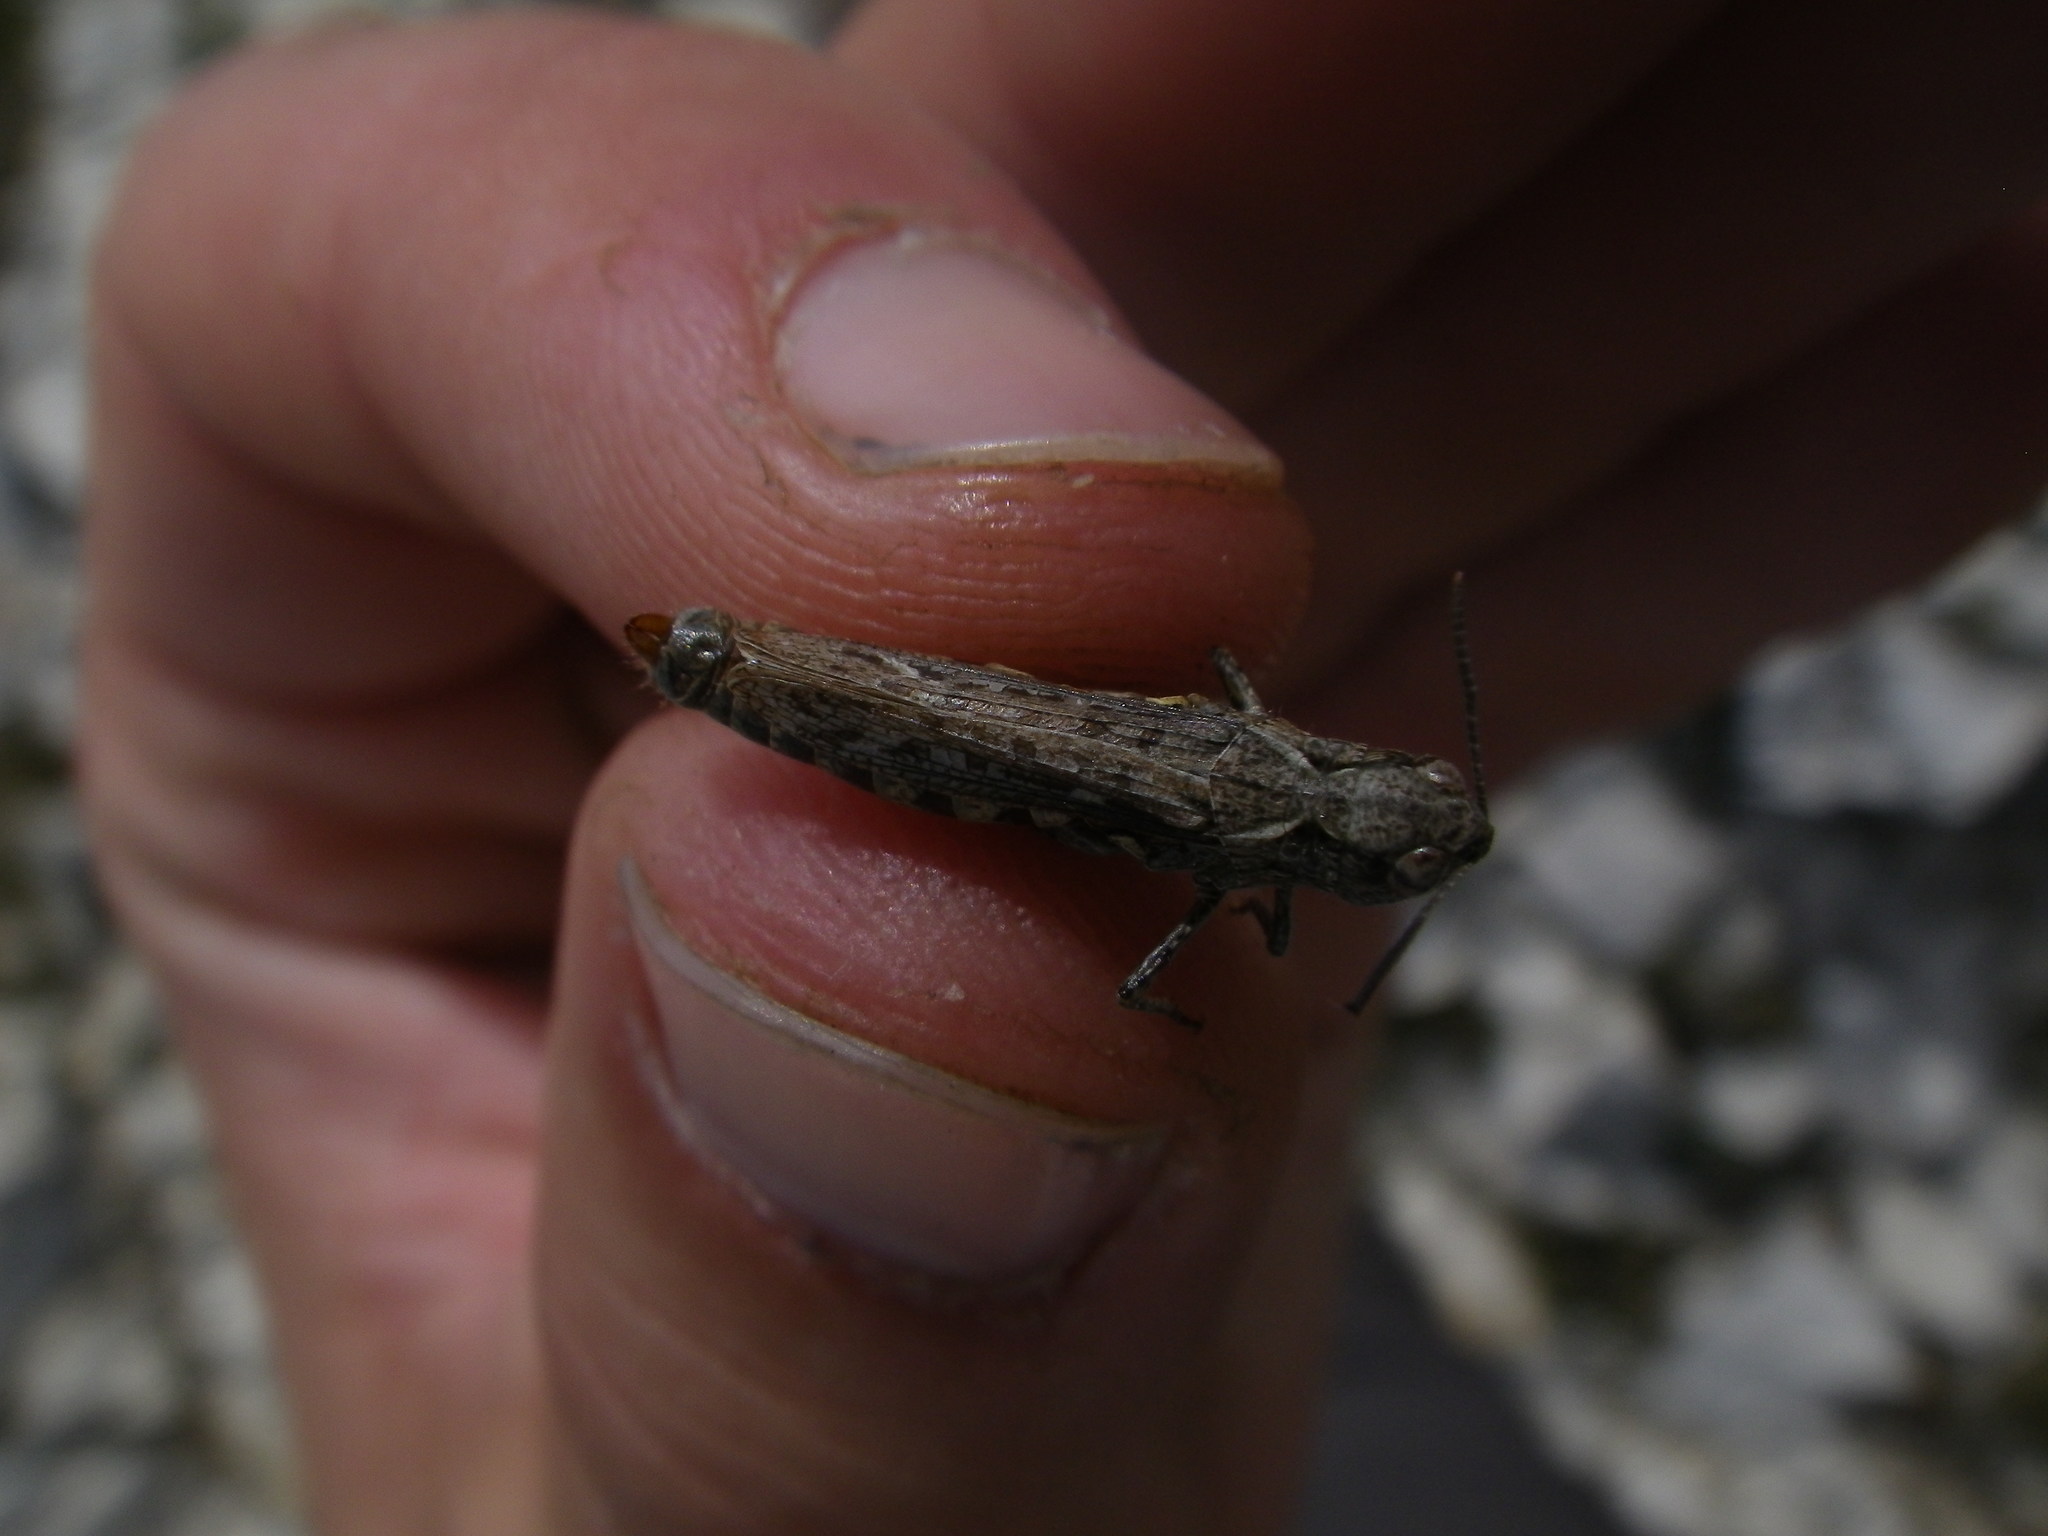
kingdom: Animalia
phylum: Arthropoda
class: Insecta
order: Orthoptera
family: Acrididae
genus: Myrmeleotettix
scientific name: Myrmeleotettix maculatus
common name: Mottled grasshopper
